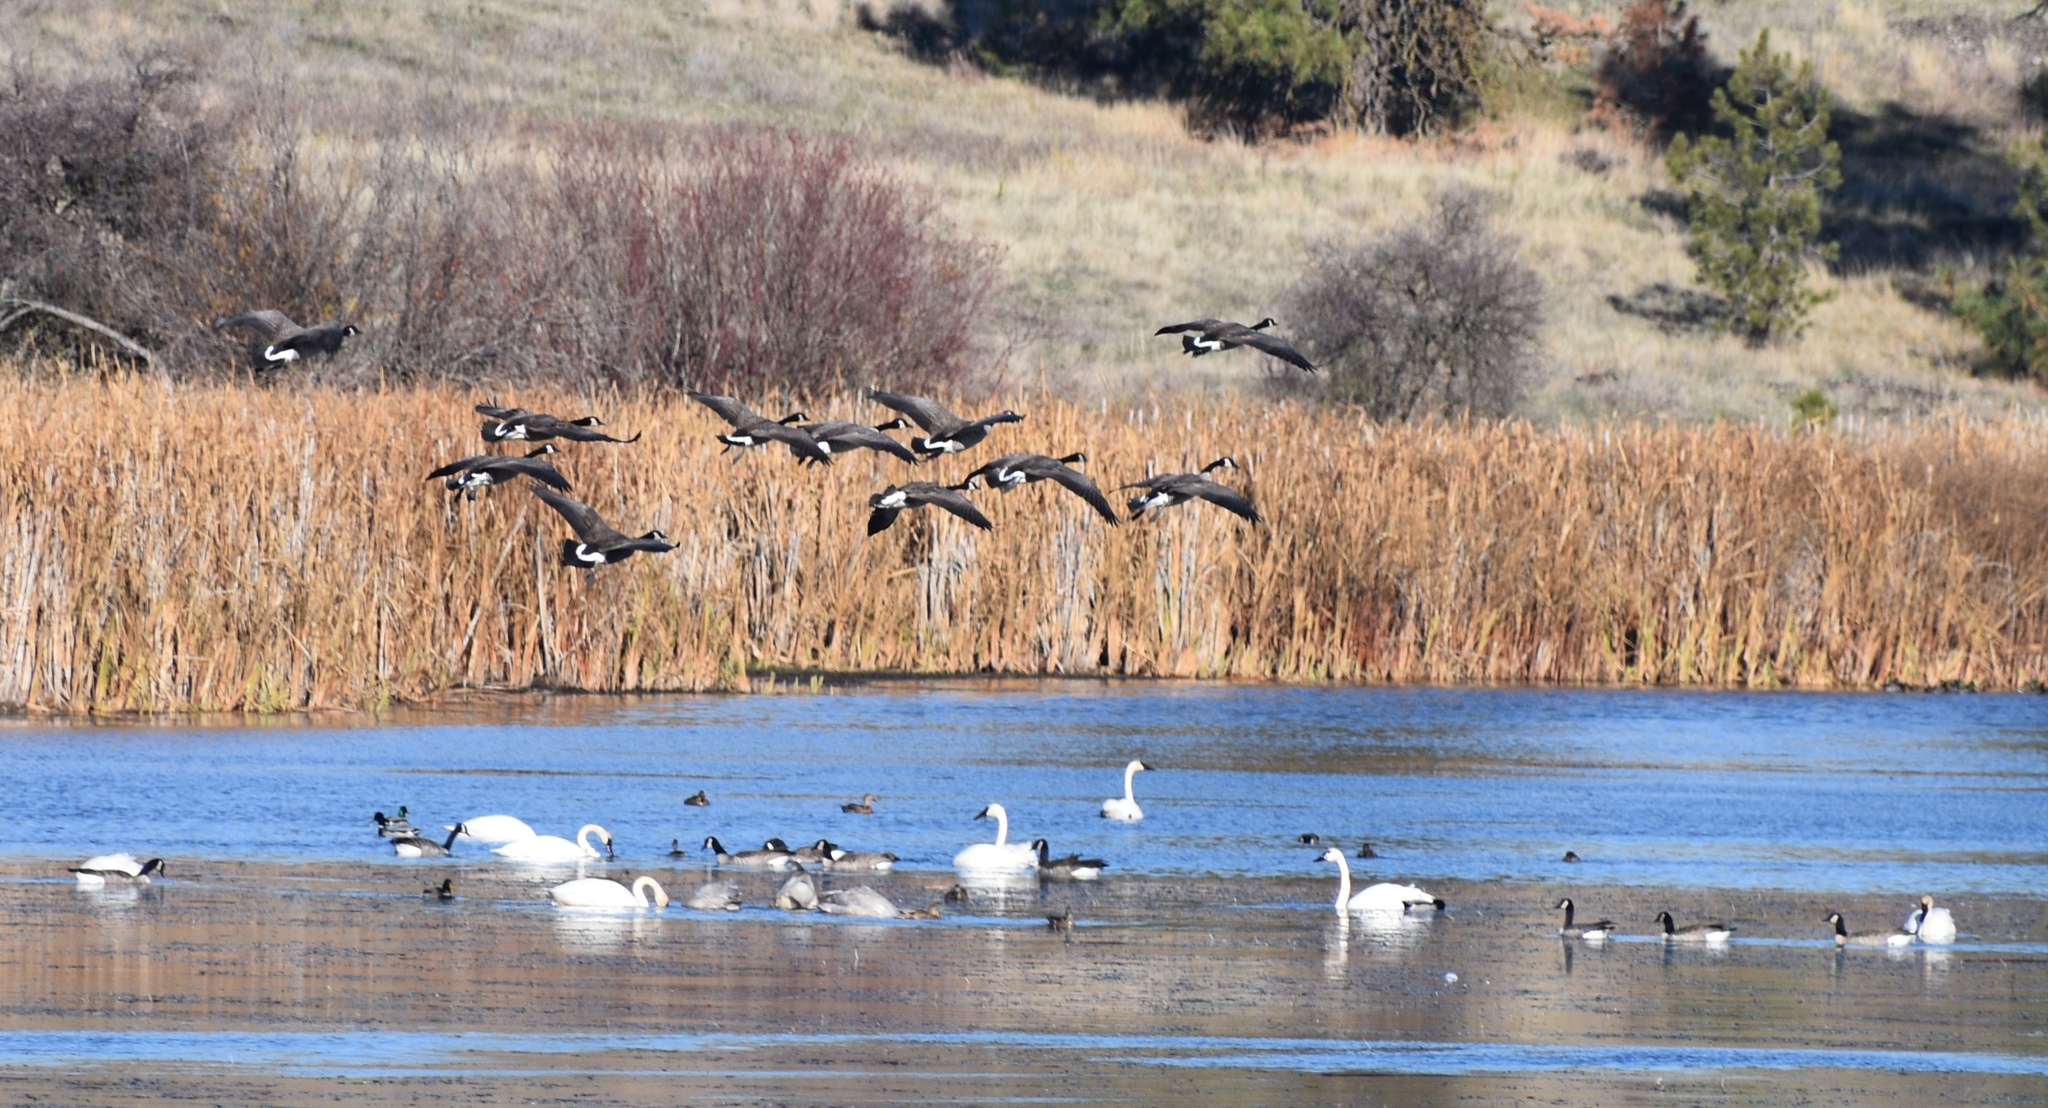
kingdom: Animalia
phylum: Chordata
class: Aves
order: Anseriformes
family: Anatidae
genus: Branta
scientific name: Branta canadensis
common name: Canada goose
